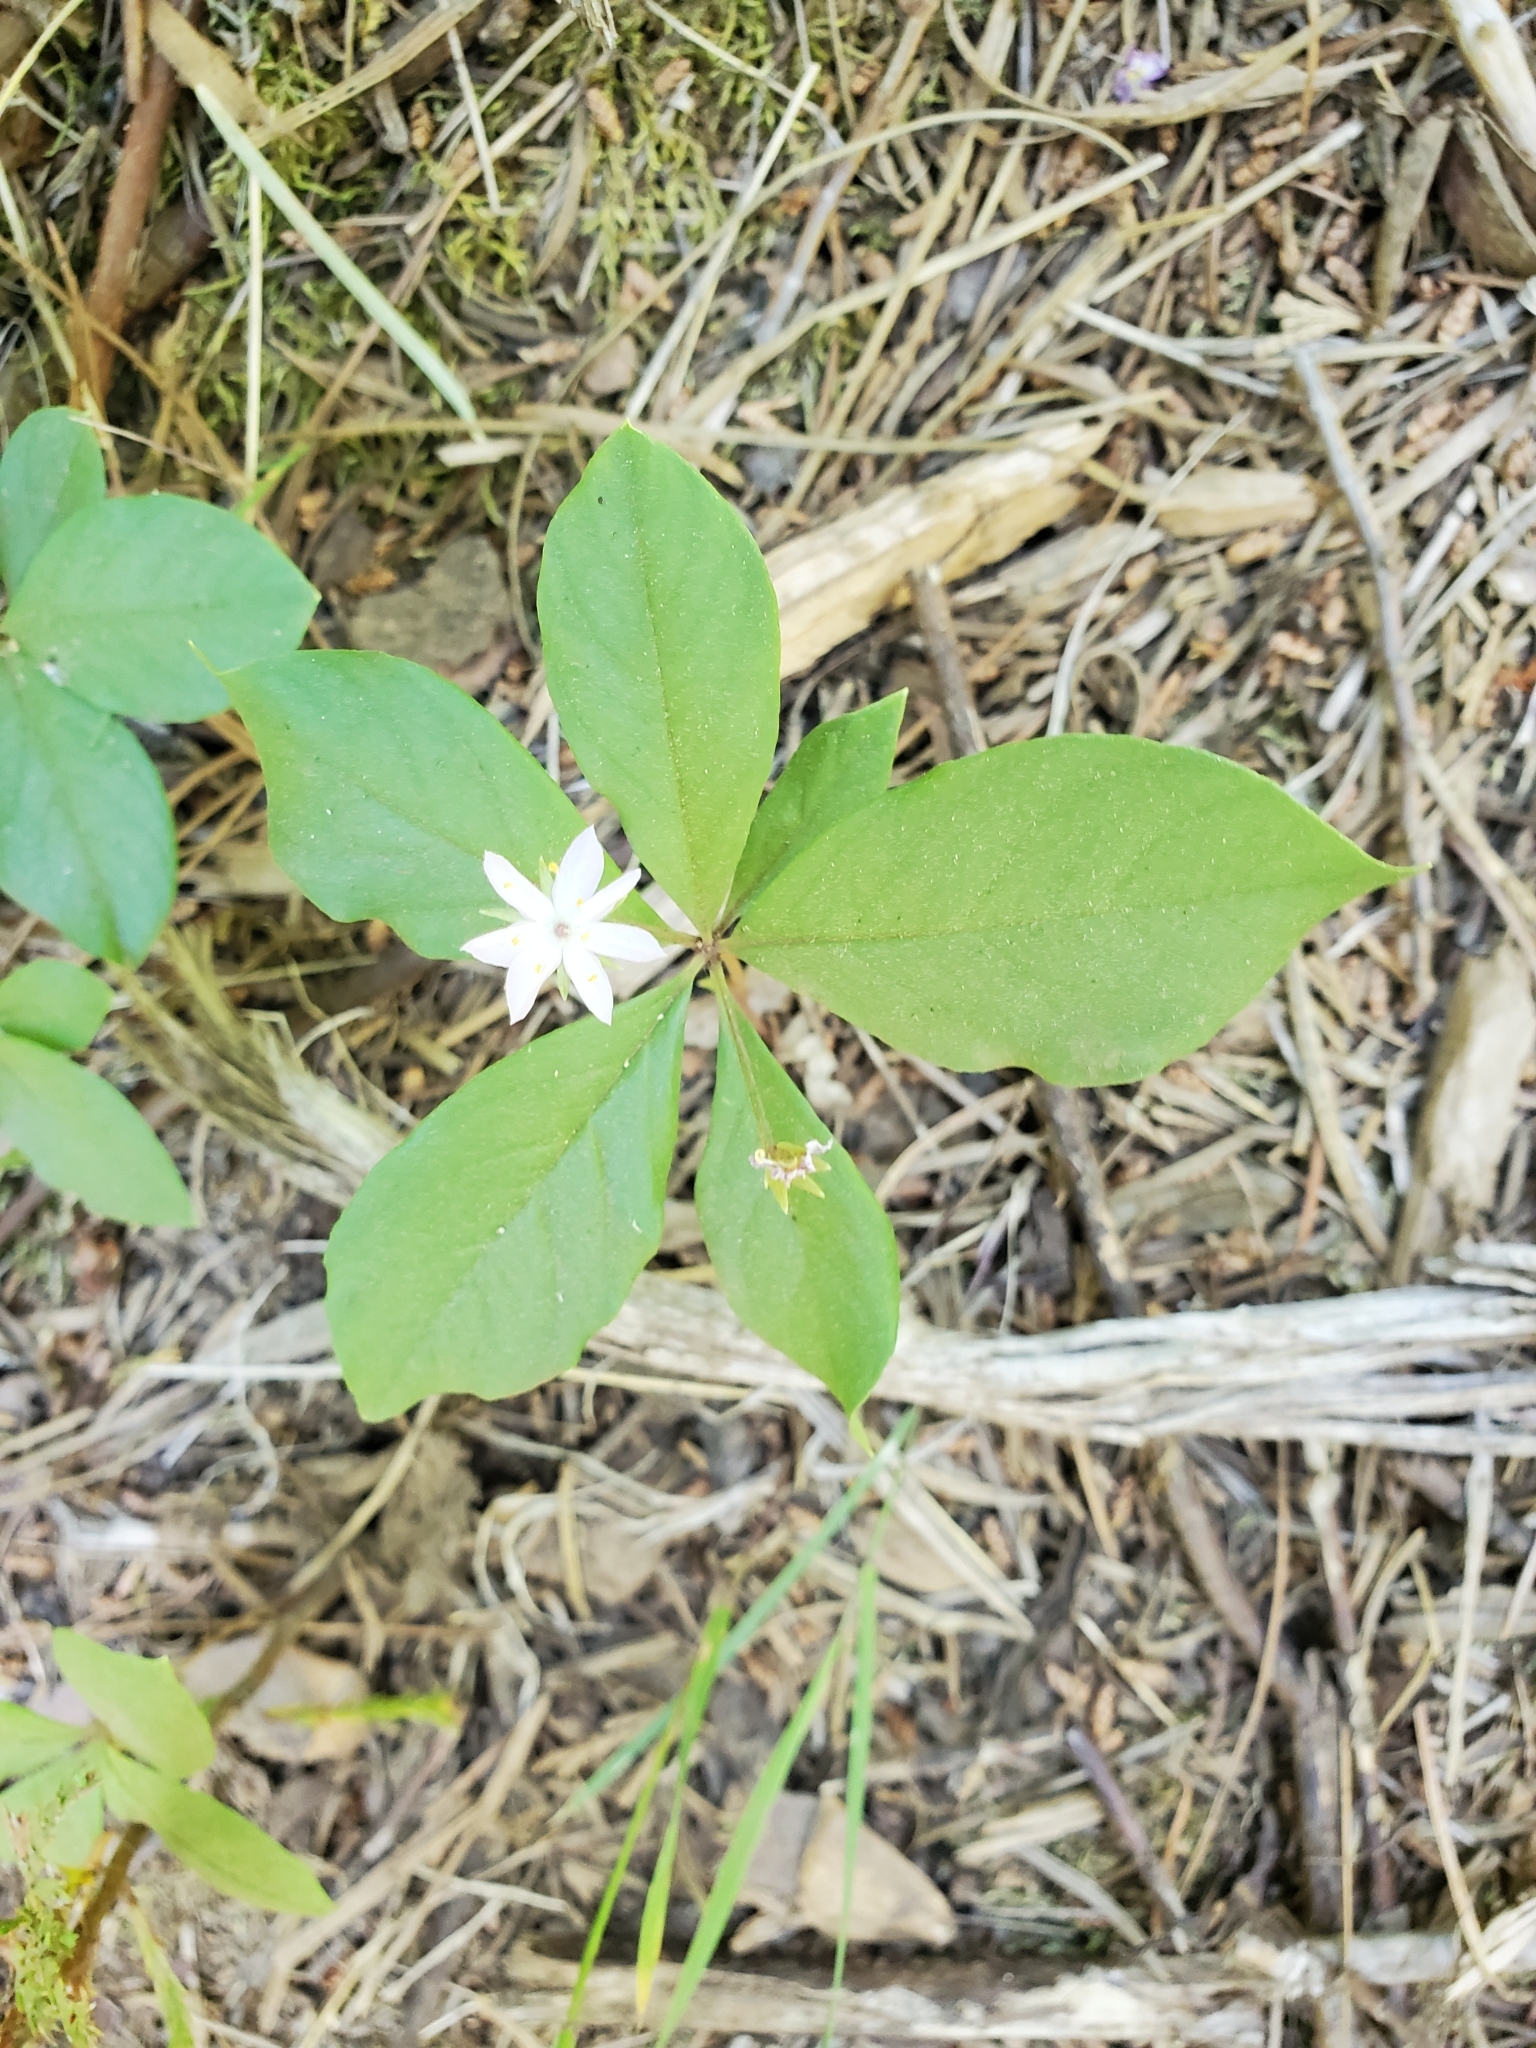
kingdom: Plantae
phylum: Tracheophyta
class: Magnoliopsida
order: Ericales
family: Primulaceae
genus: Lysimachia
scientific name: Lysimachia latifolia
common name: Pacific starflower
